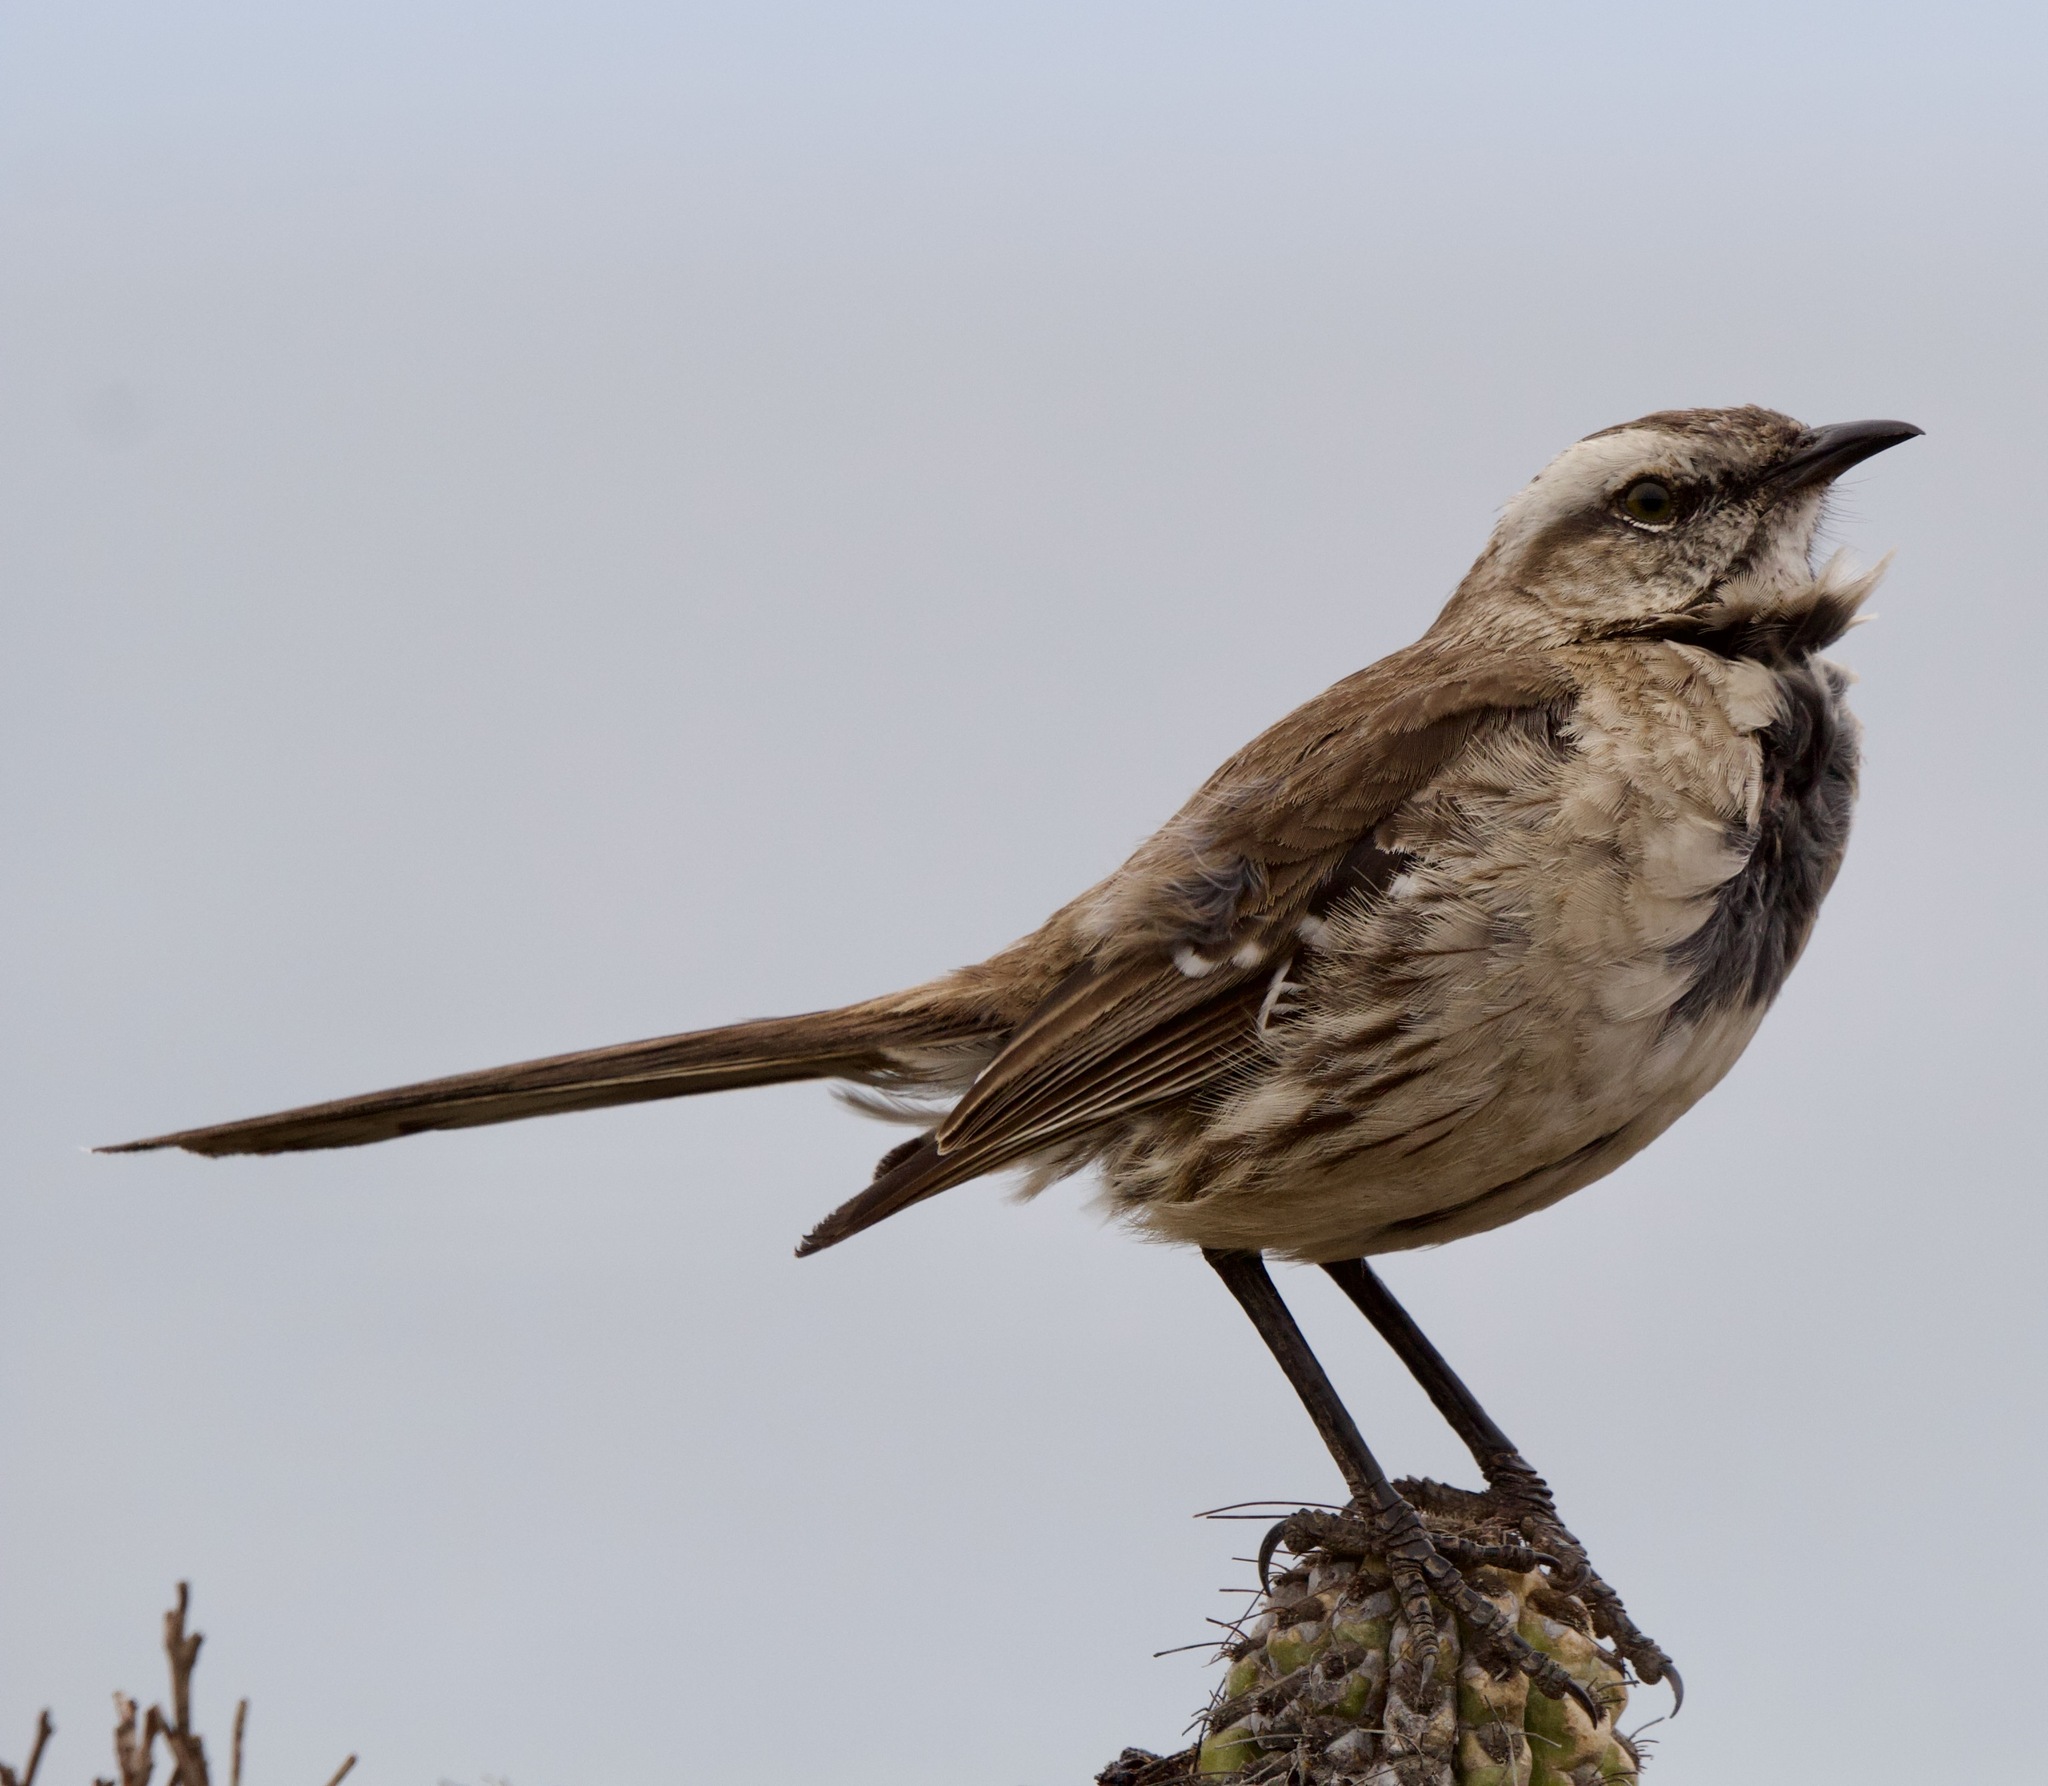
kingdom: Animalia
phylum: Chordata
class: Aves
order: Passeriformes
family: Mimidae
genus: Mimus
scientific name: Mimus thenca
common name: Chilean mockingbird
